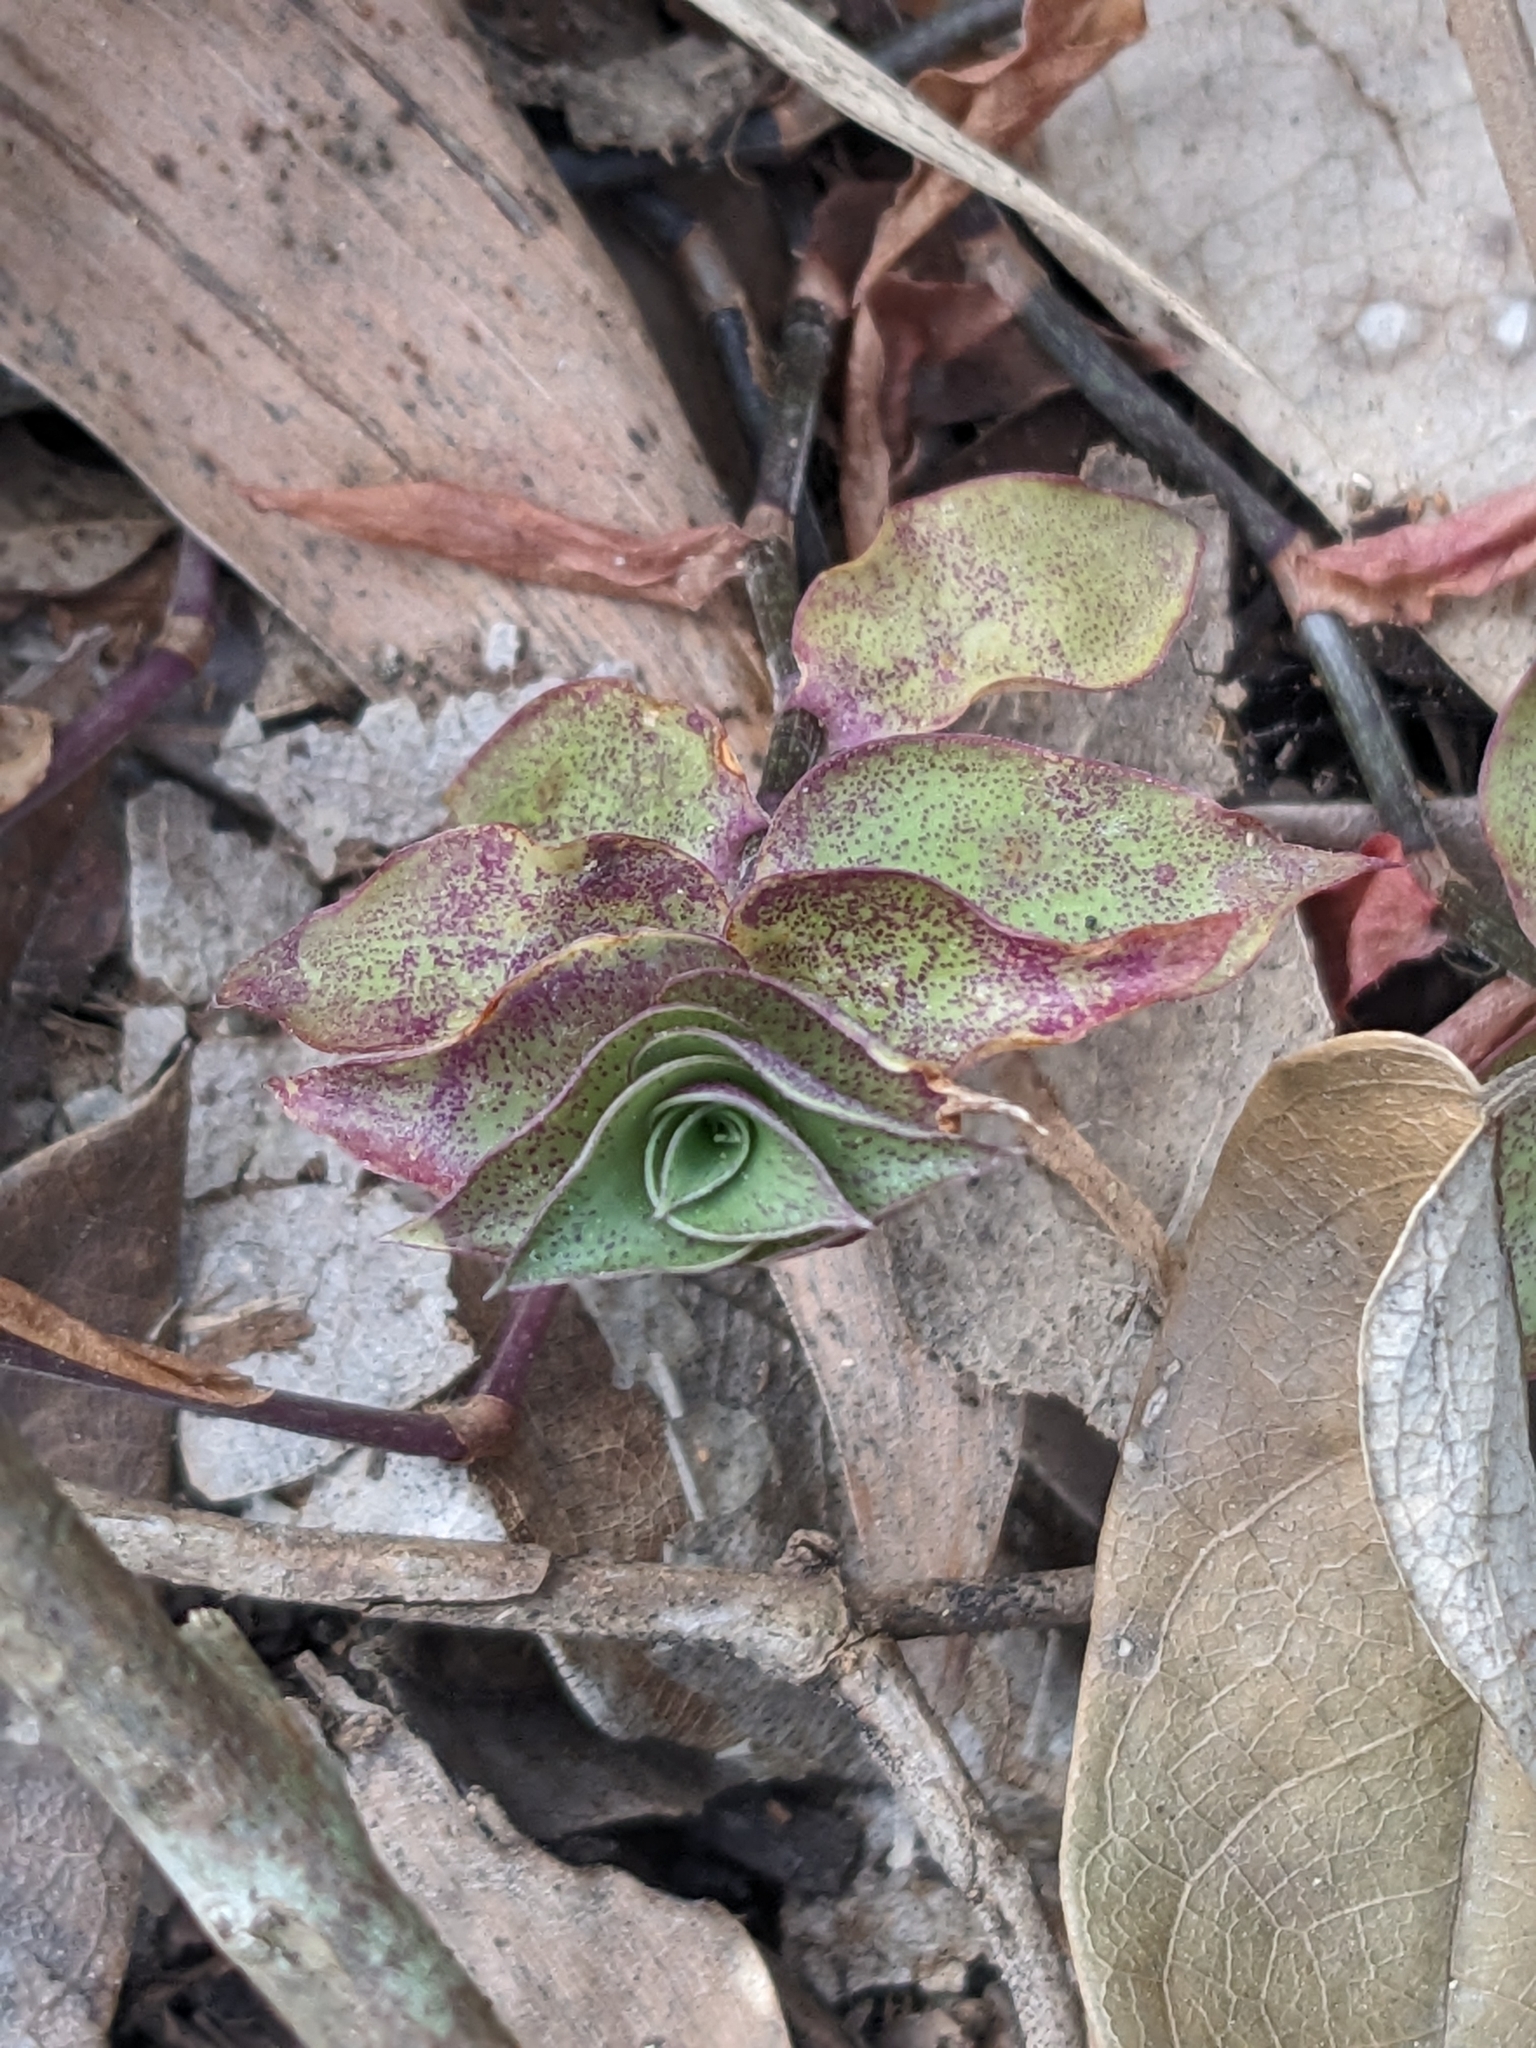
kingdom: Plantae
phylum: Tracheophyta
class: Liliopsida
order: Commelinales
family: Commelinaceae
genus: Callisia
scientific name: Callisia repens
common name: Creeping inchplant
